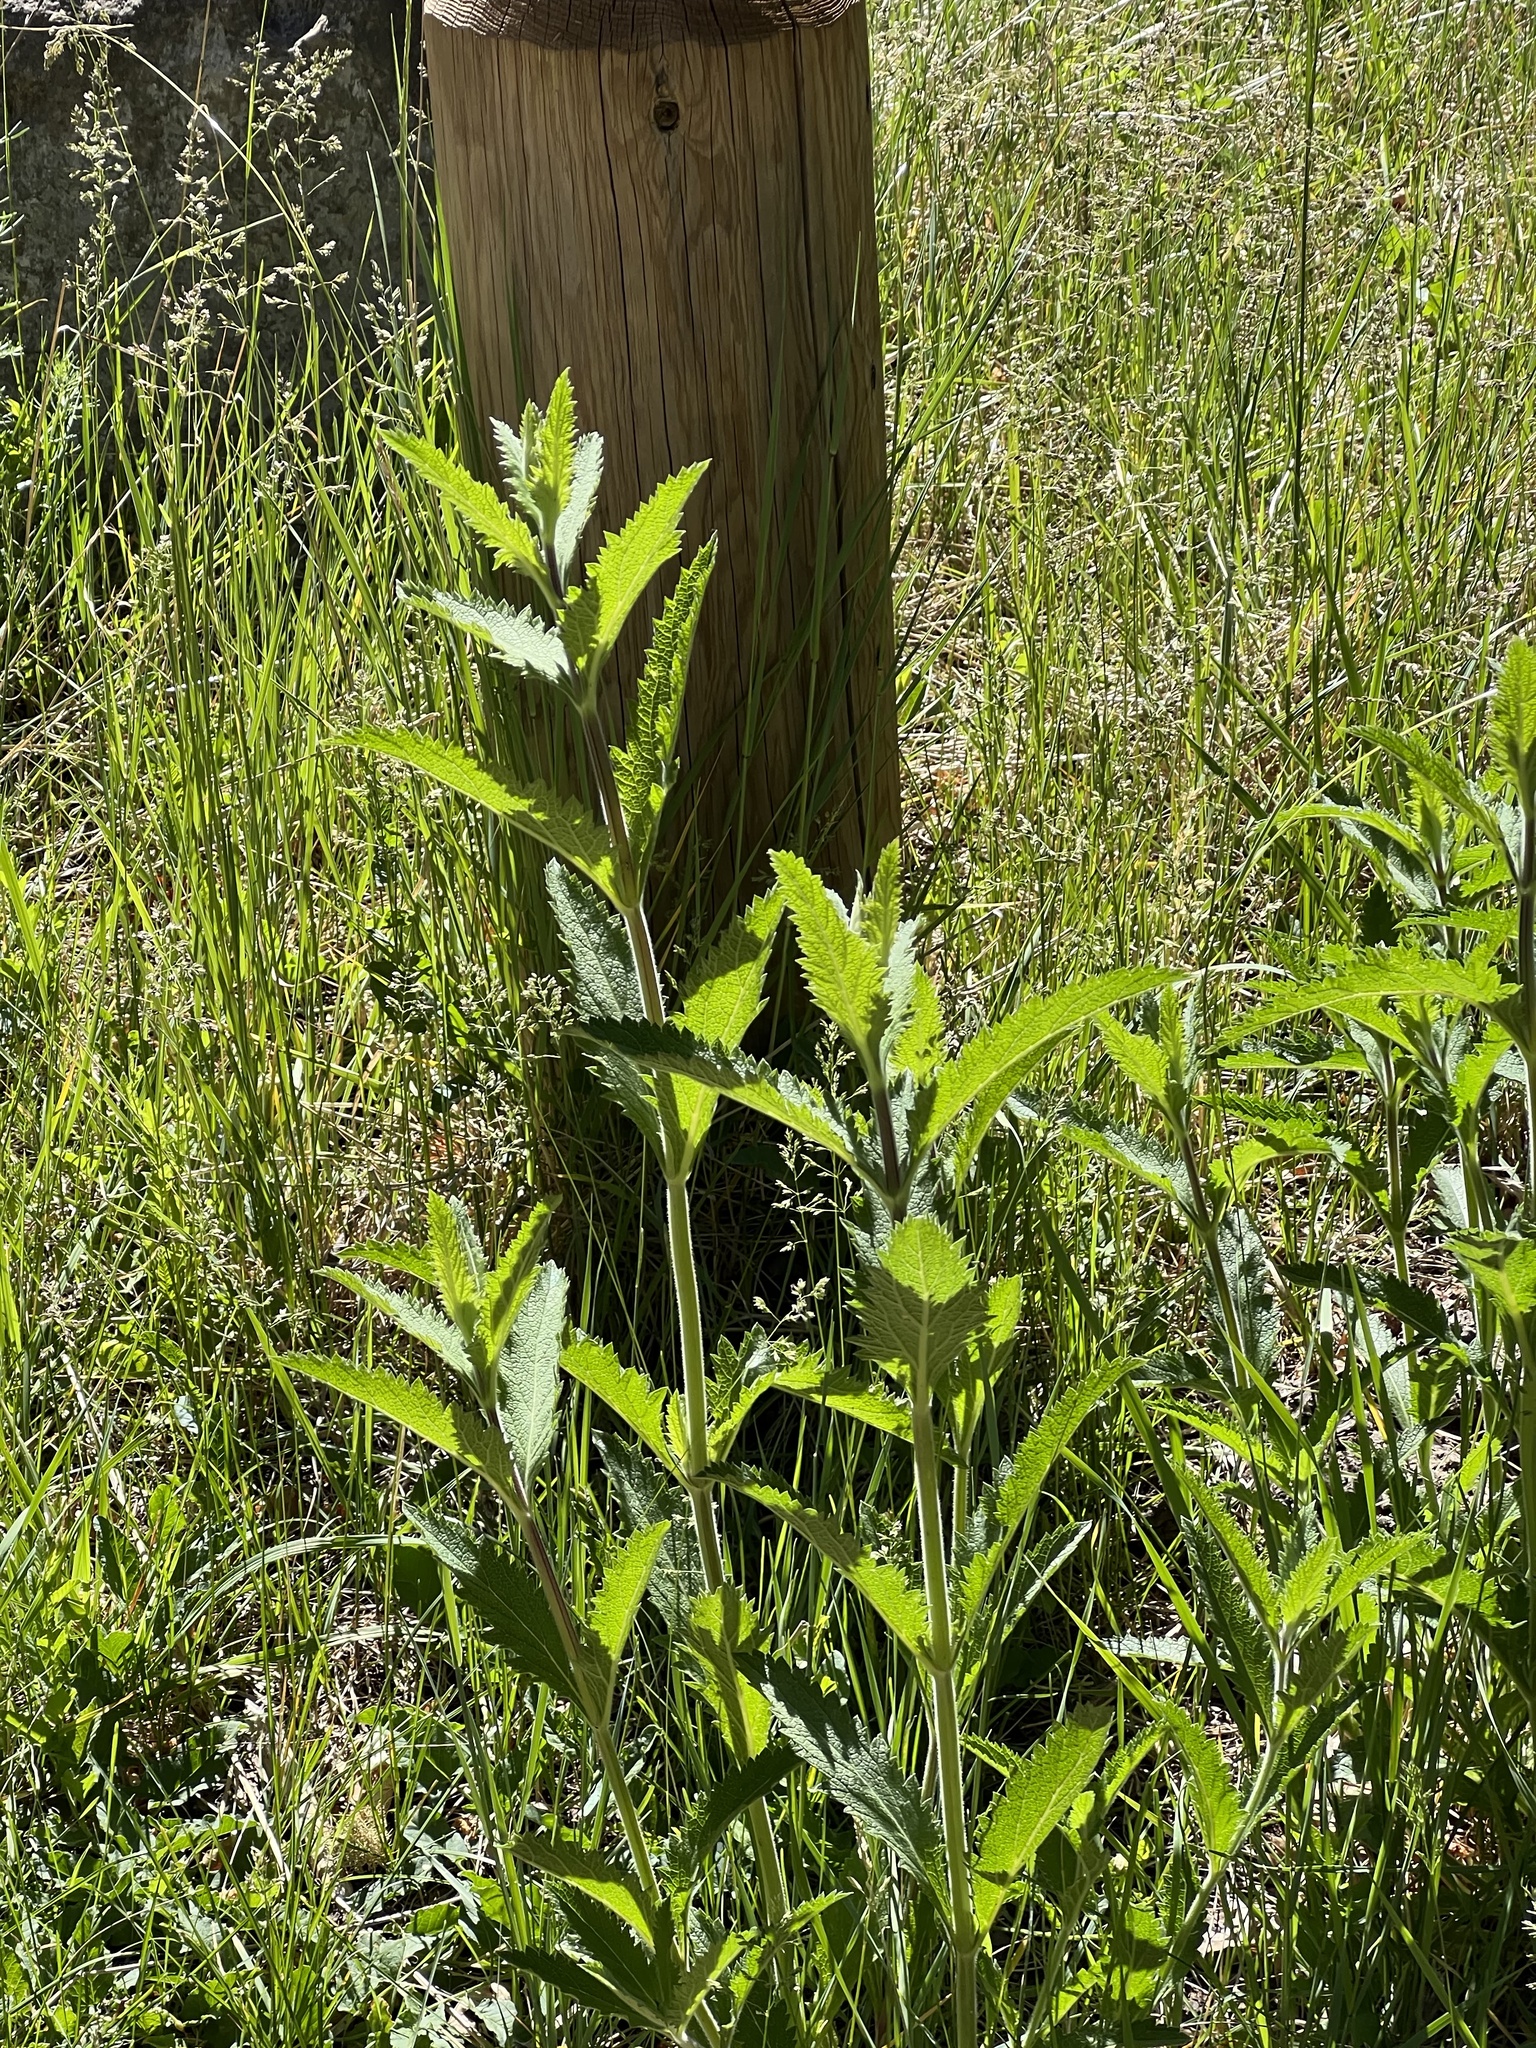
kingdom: Plantae
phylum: Tracheophyta
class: Magnoliopsida
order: Lamiales
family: Verbenaceae
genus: Verbena
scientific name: Verbena macdougalii
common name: New mexico vervain
